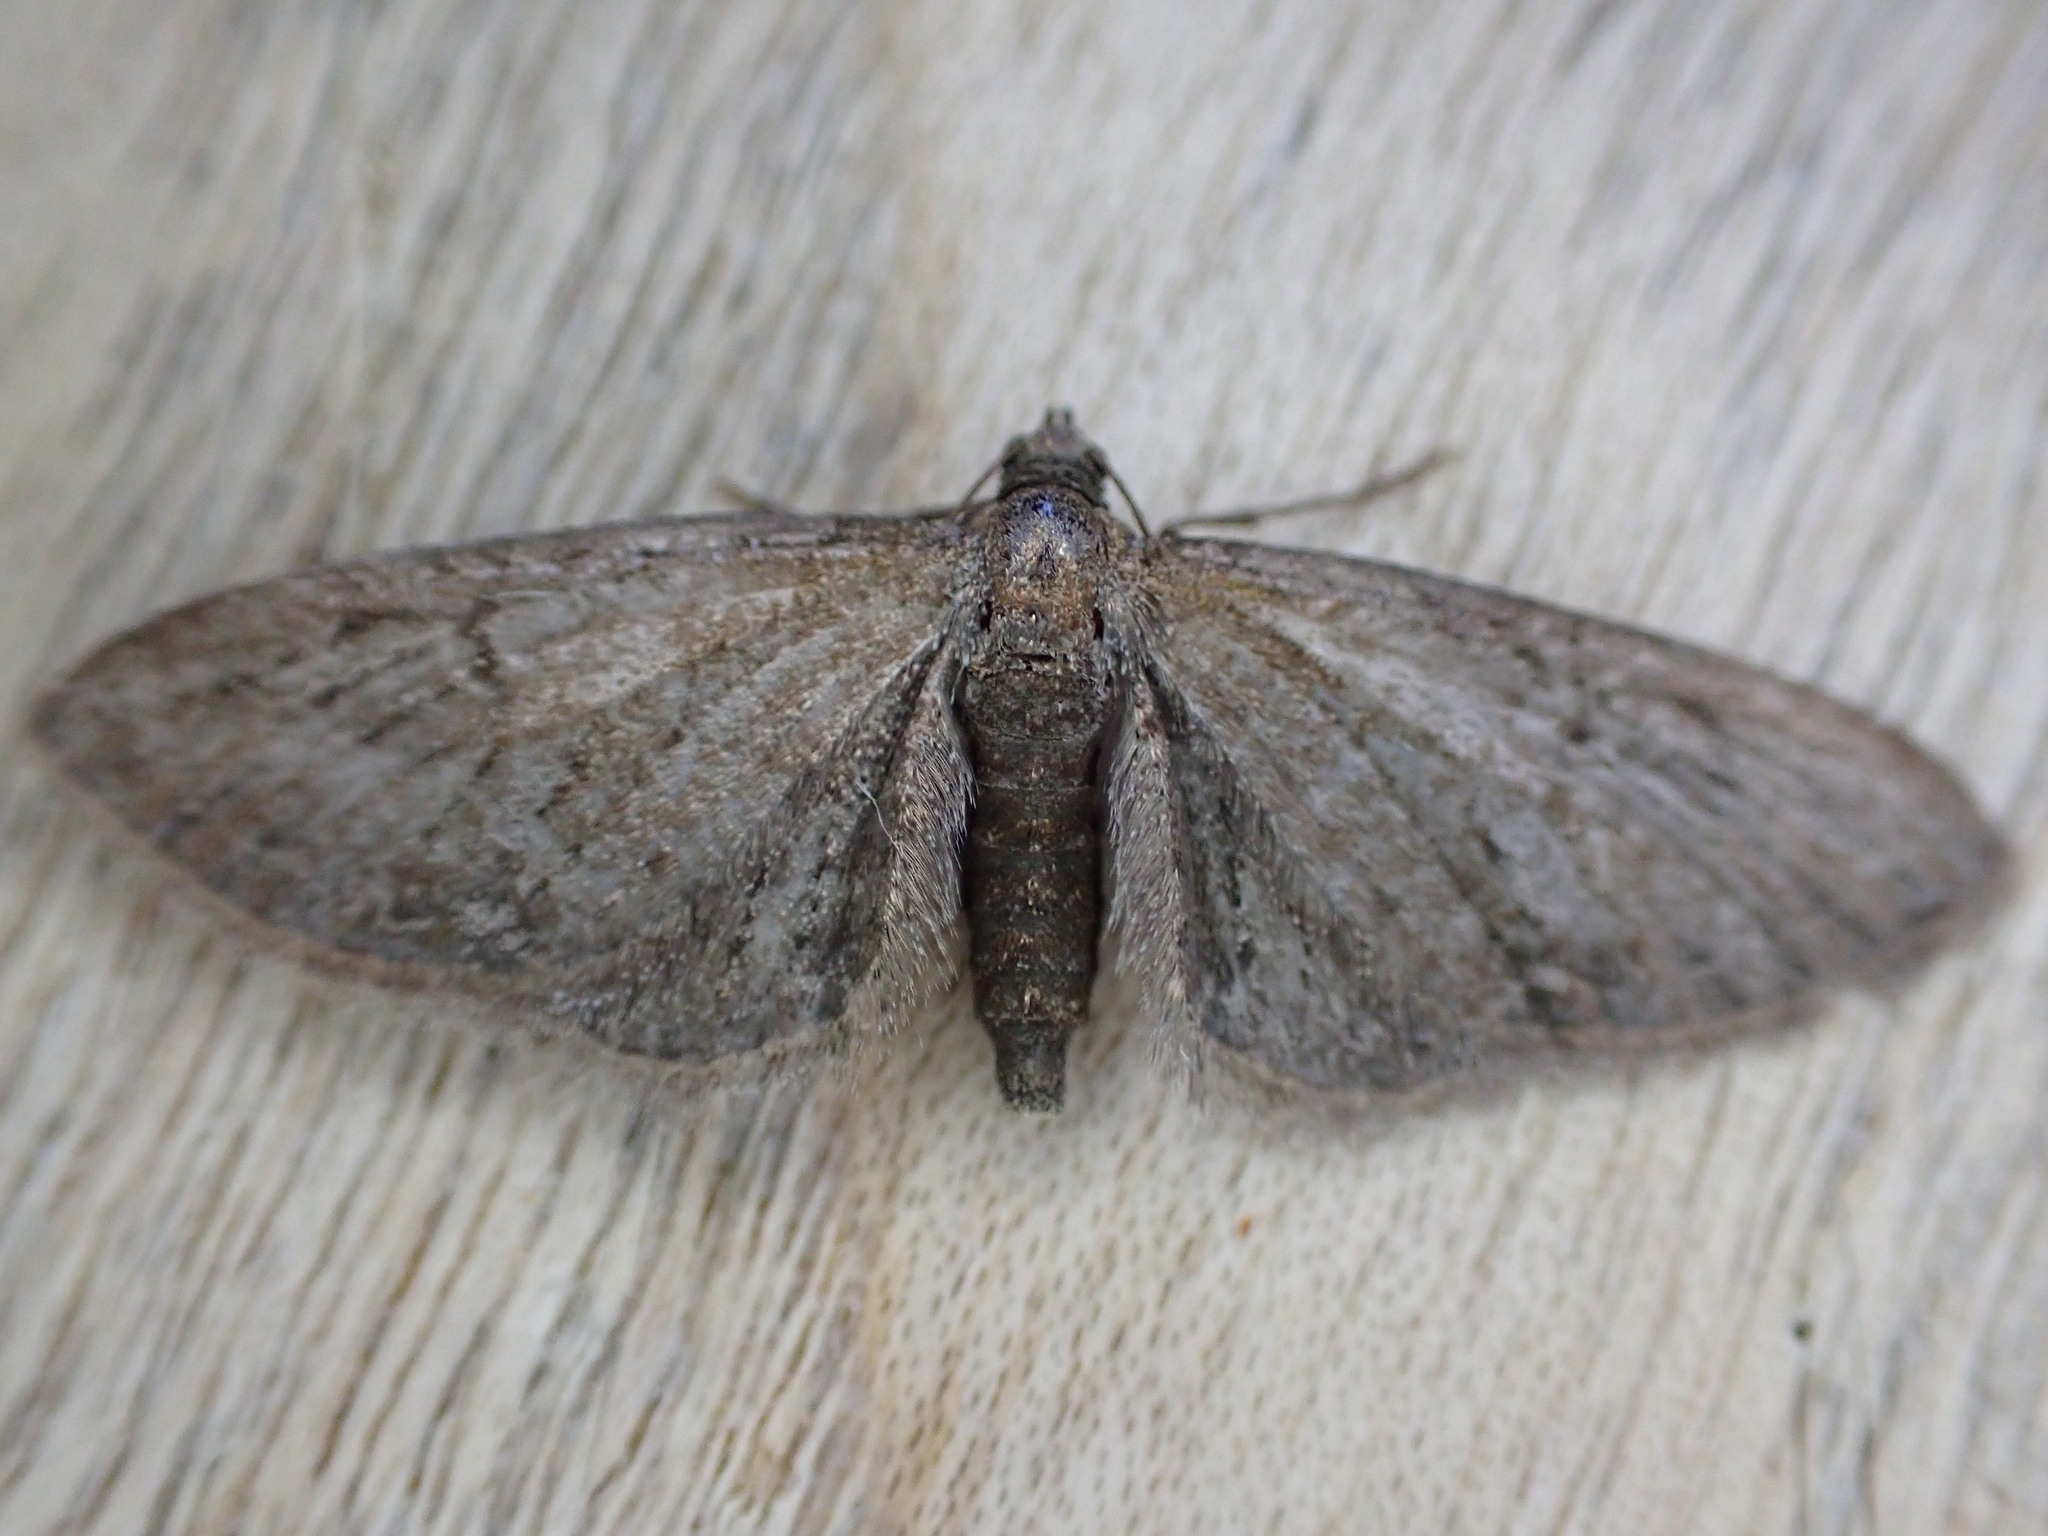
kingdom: Animalia
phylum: Arthropoda
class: Insecta
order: Lepidoptera
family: Geometridae
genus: Eupithecia
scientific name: Eupithecia vulgata
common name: Common pug
